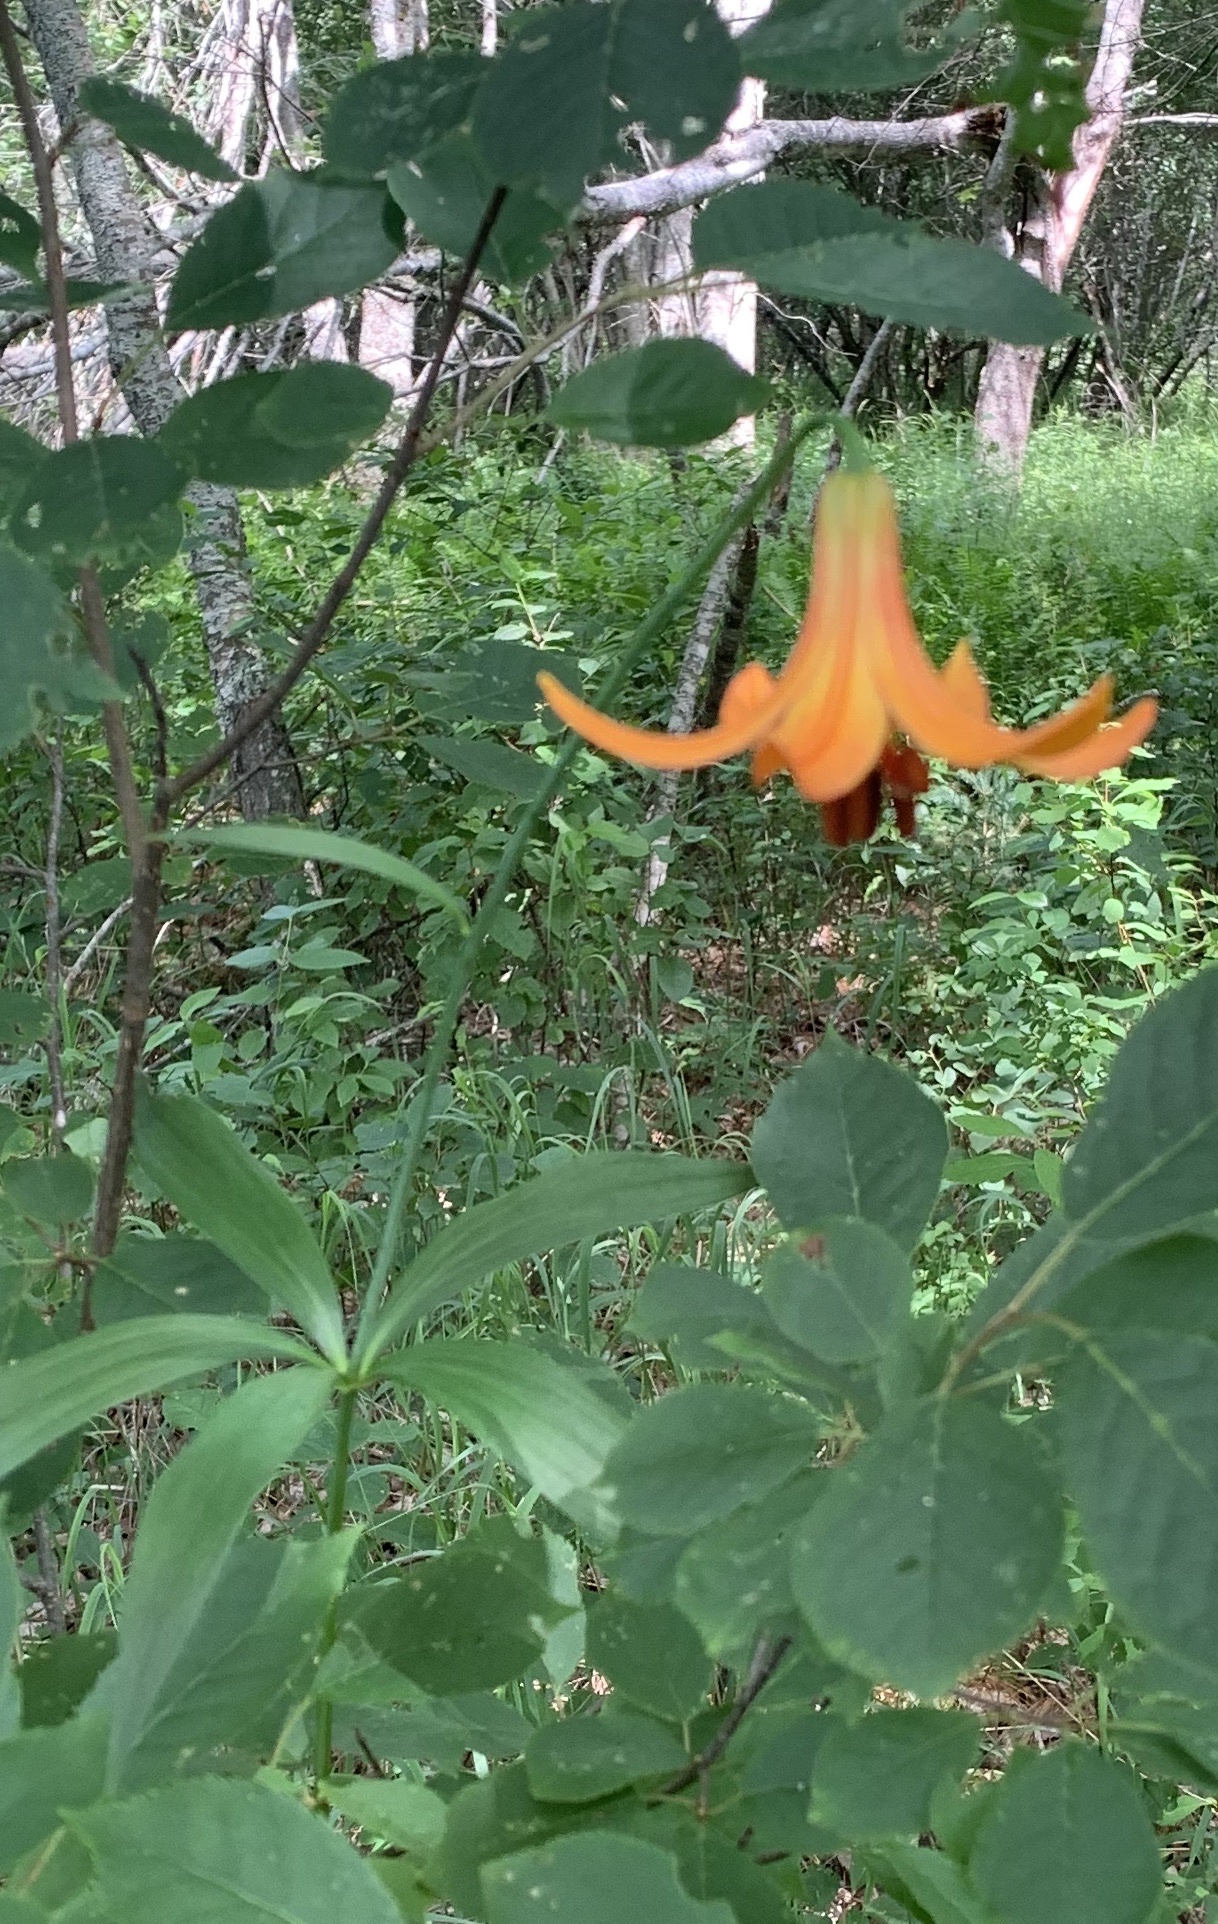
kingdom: Plantae
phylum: Tracheophyta
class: Liliopsida
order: Liliales
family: Liliaceae
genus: Lilium
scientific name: Lilium canadense
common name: Canada lily
